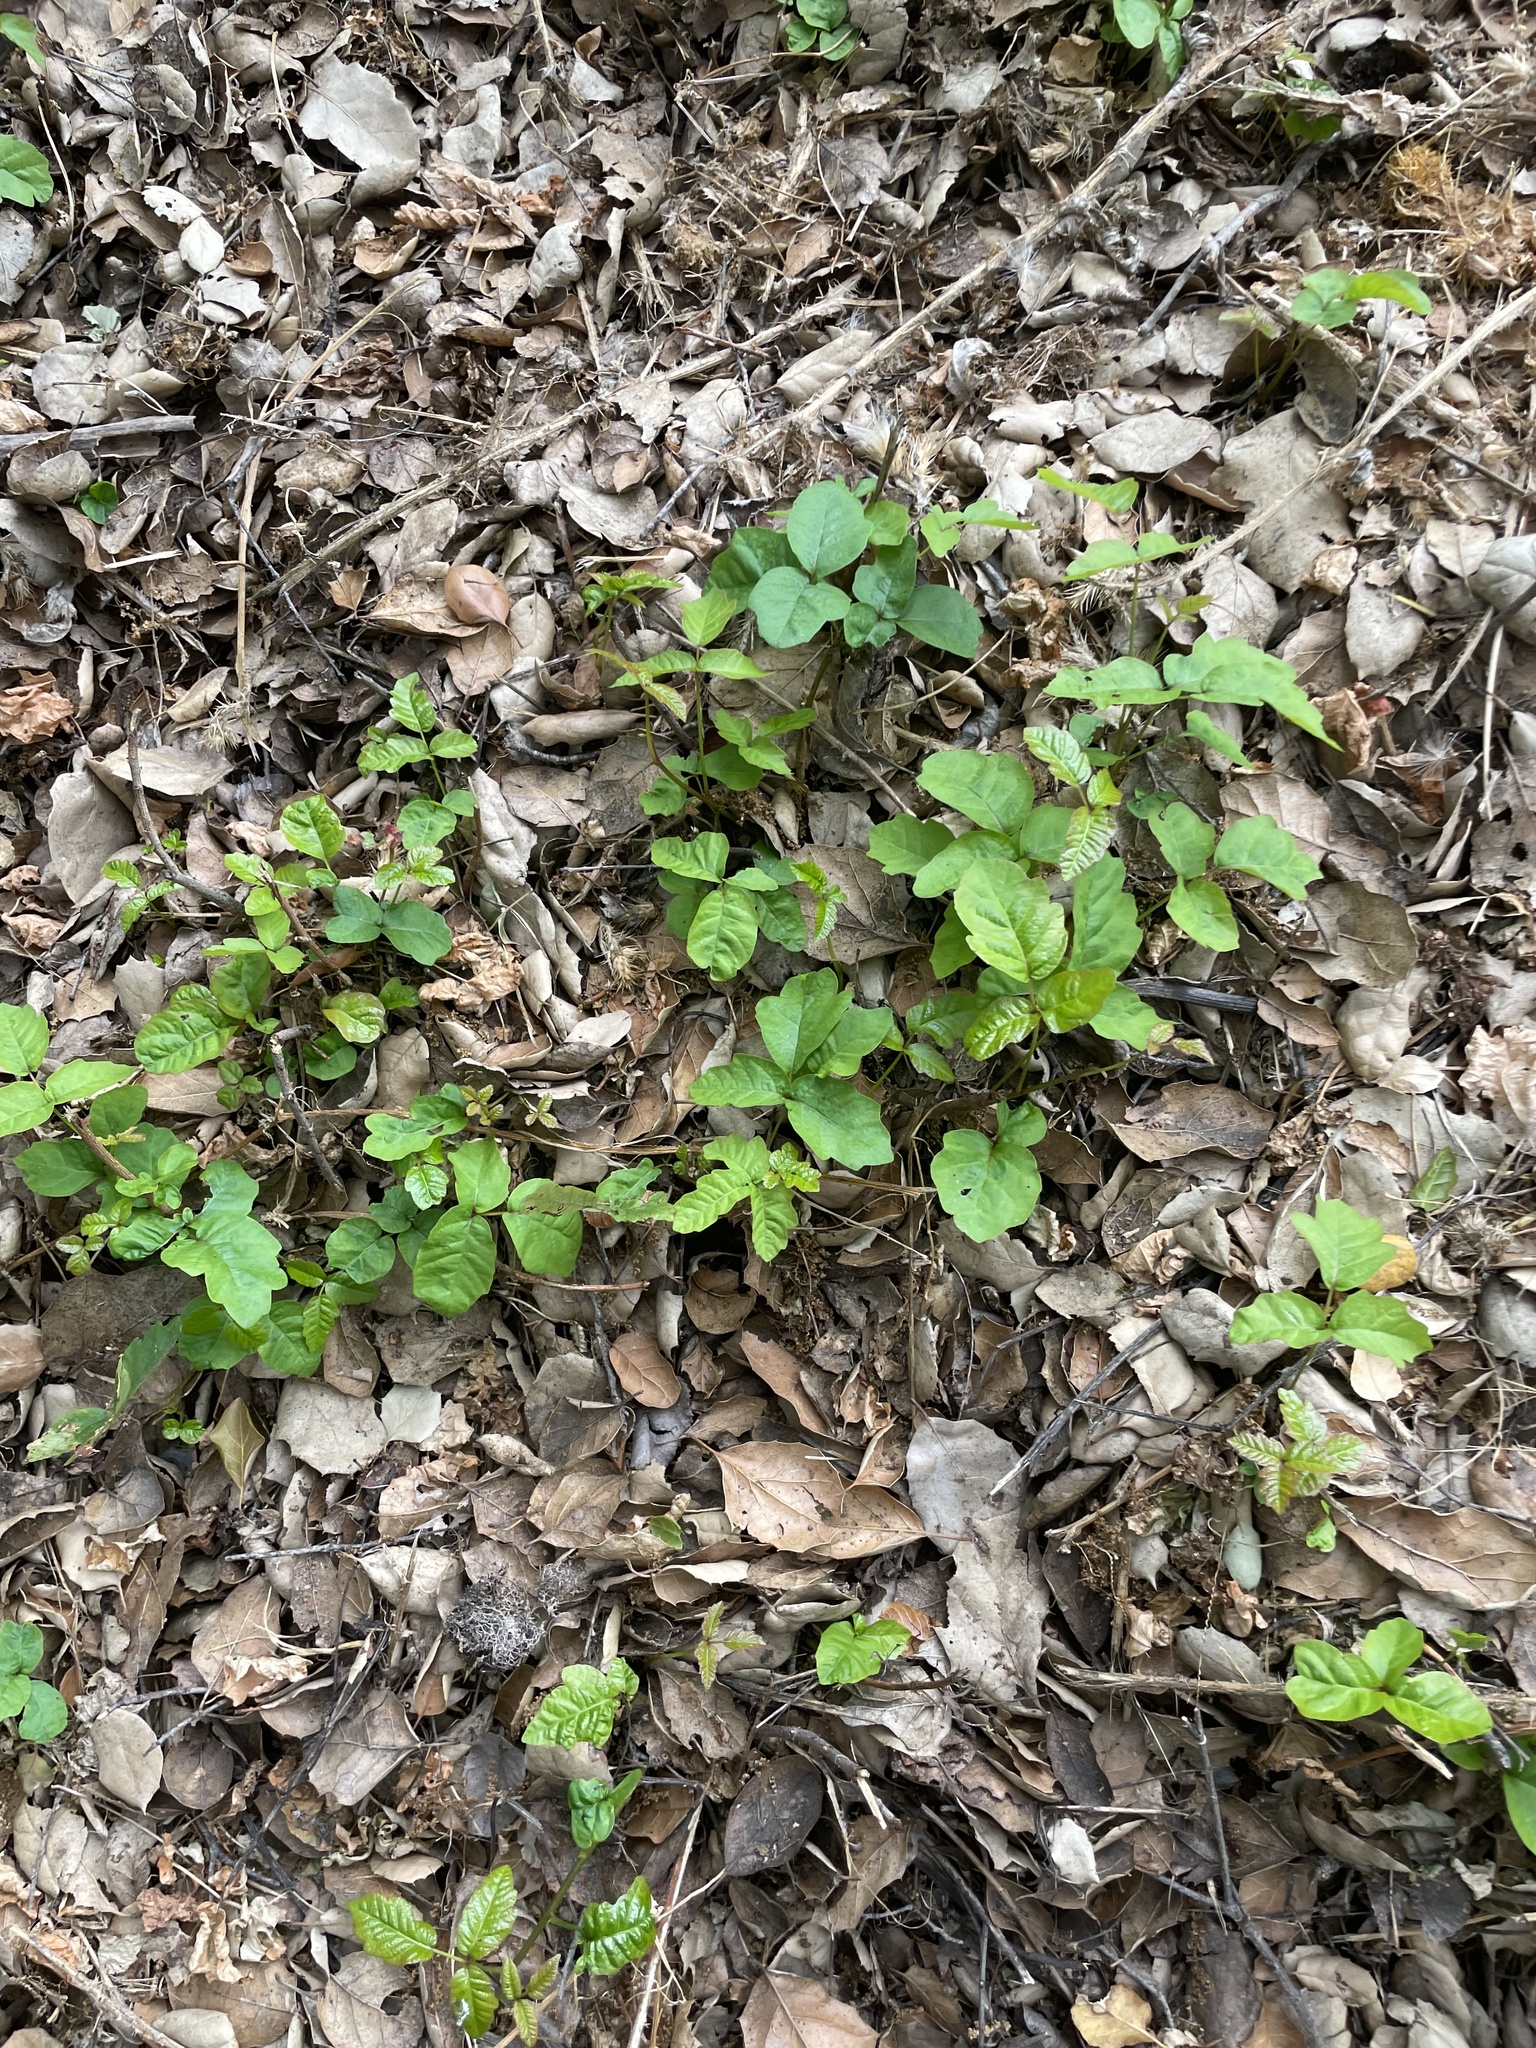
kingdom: Plantae
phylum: Tracheophyta
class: Magnoliopsida
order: Sapindales
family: Anacardiaceae
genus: Toxicodendron
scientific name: Toxicodendron diversilobum
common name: Pacific poison-oak
